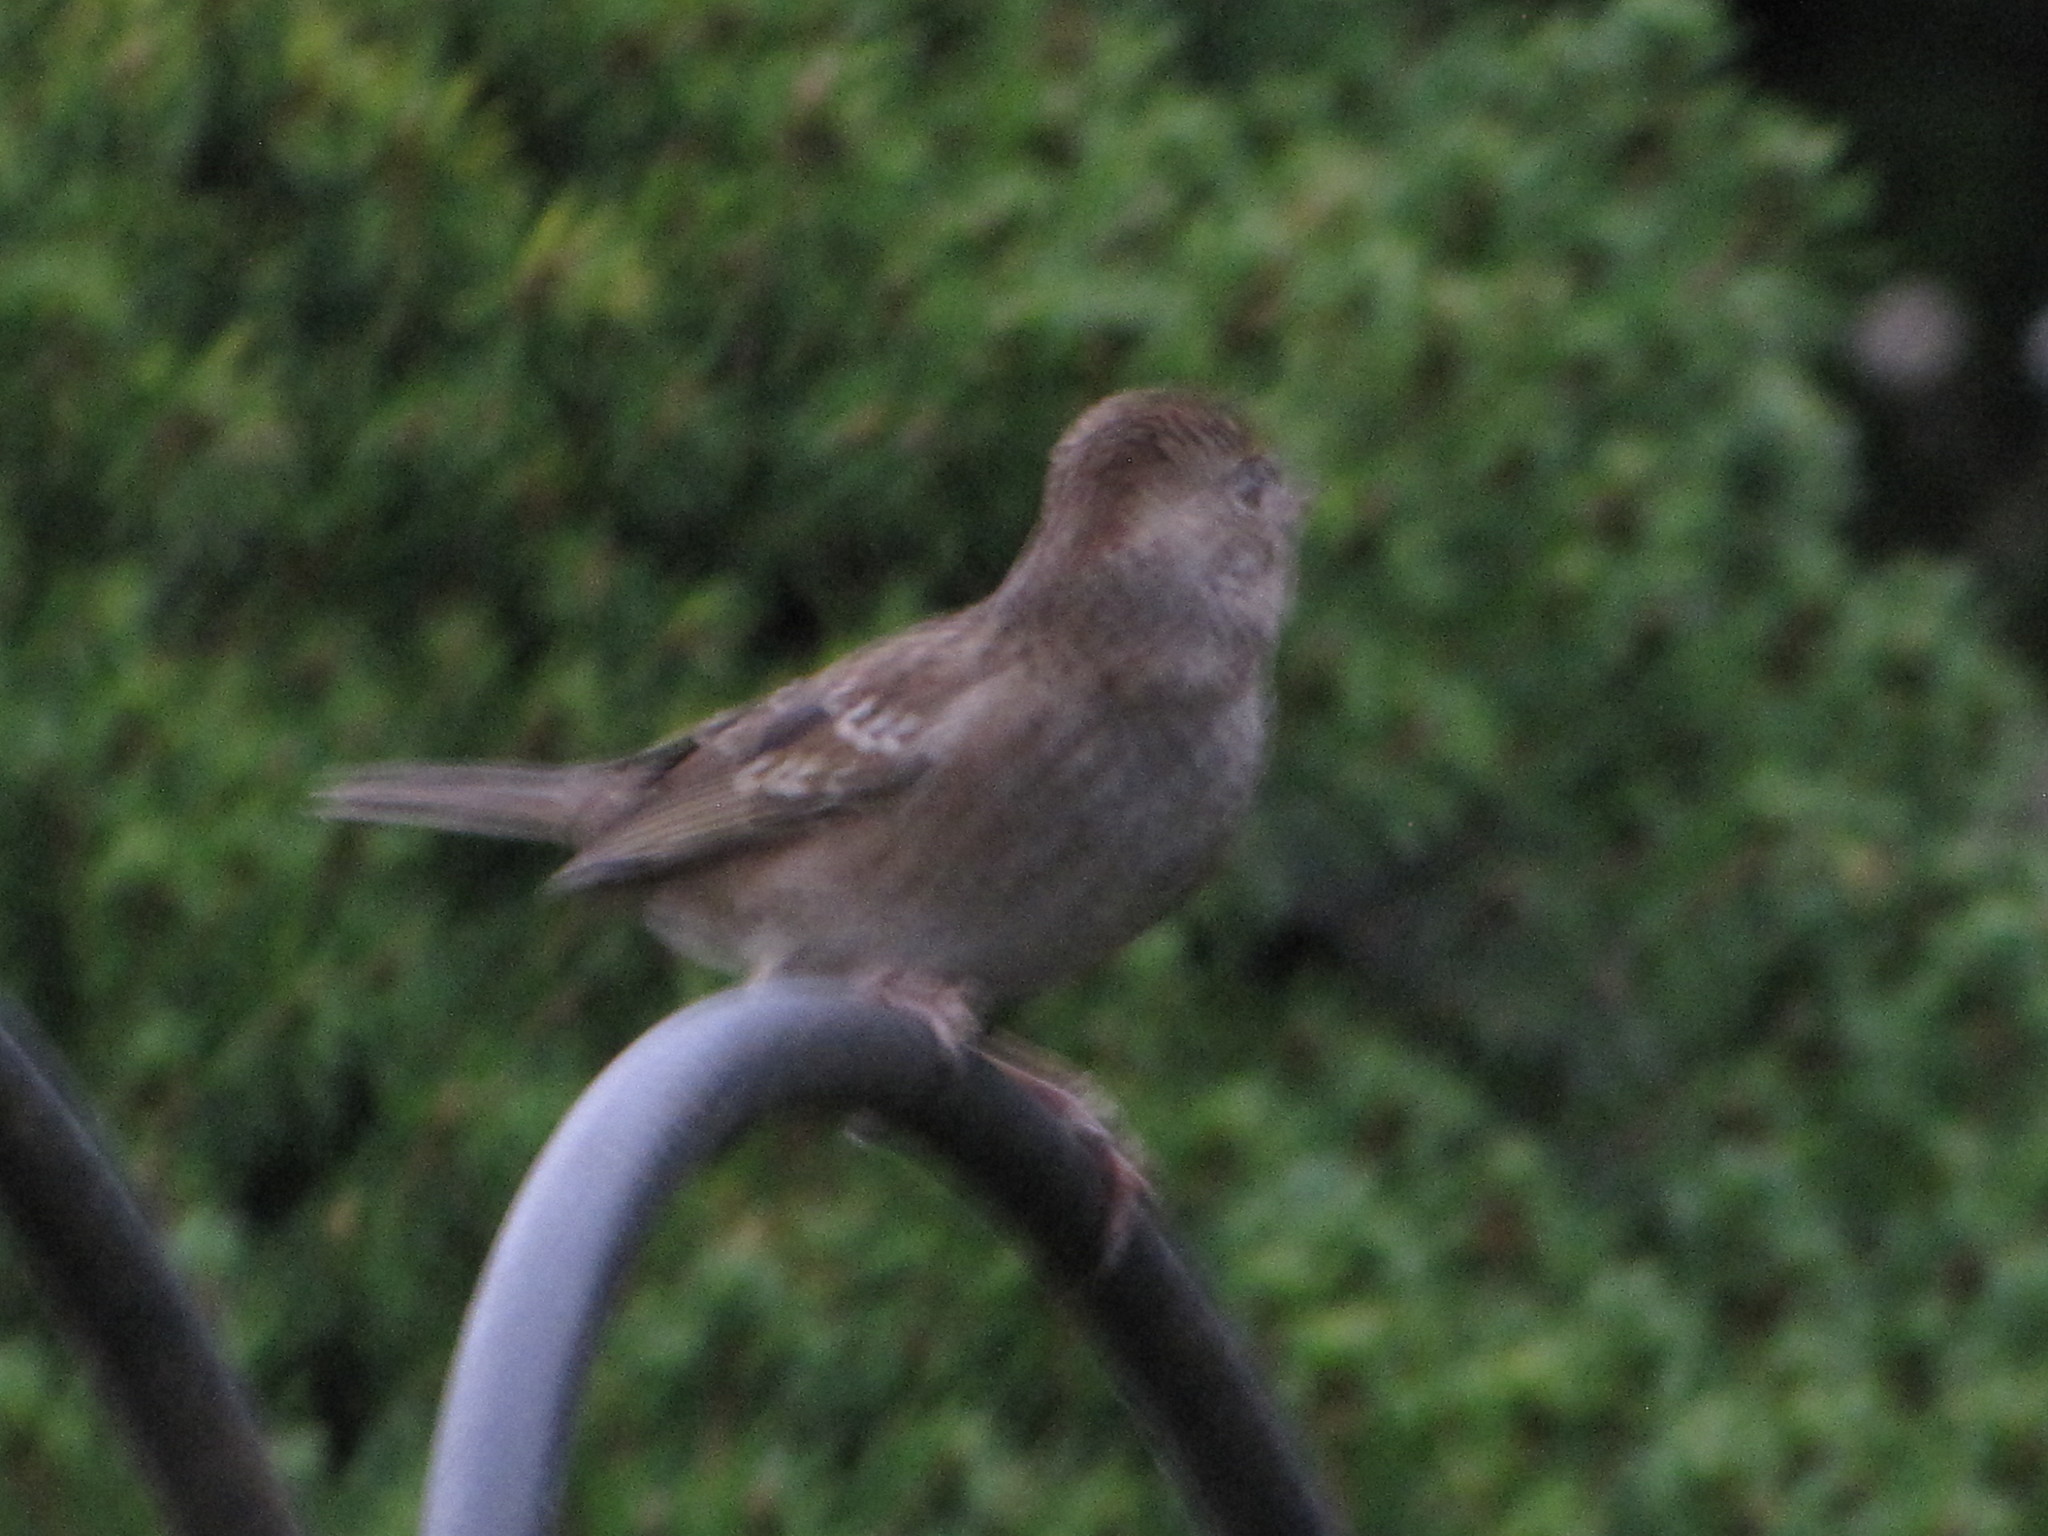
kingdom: Animalia
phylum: Chordata
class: Aves
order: Passeriformes
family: Passerellidae
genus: Zonotrichia
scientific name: Zonotrichia atricapilla
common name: Golden-crowned sparrow
